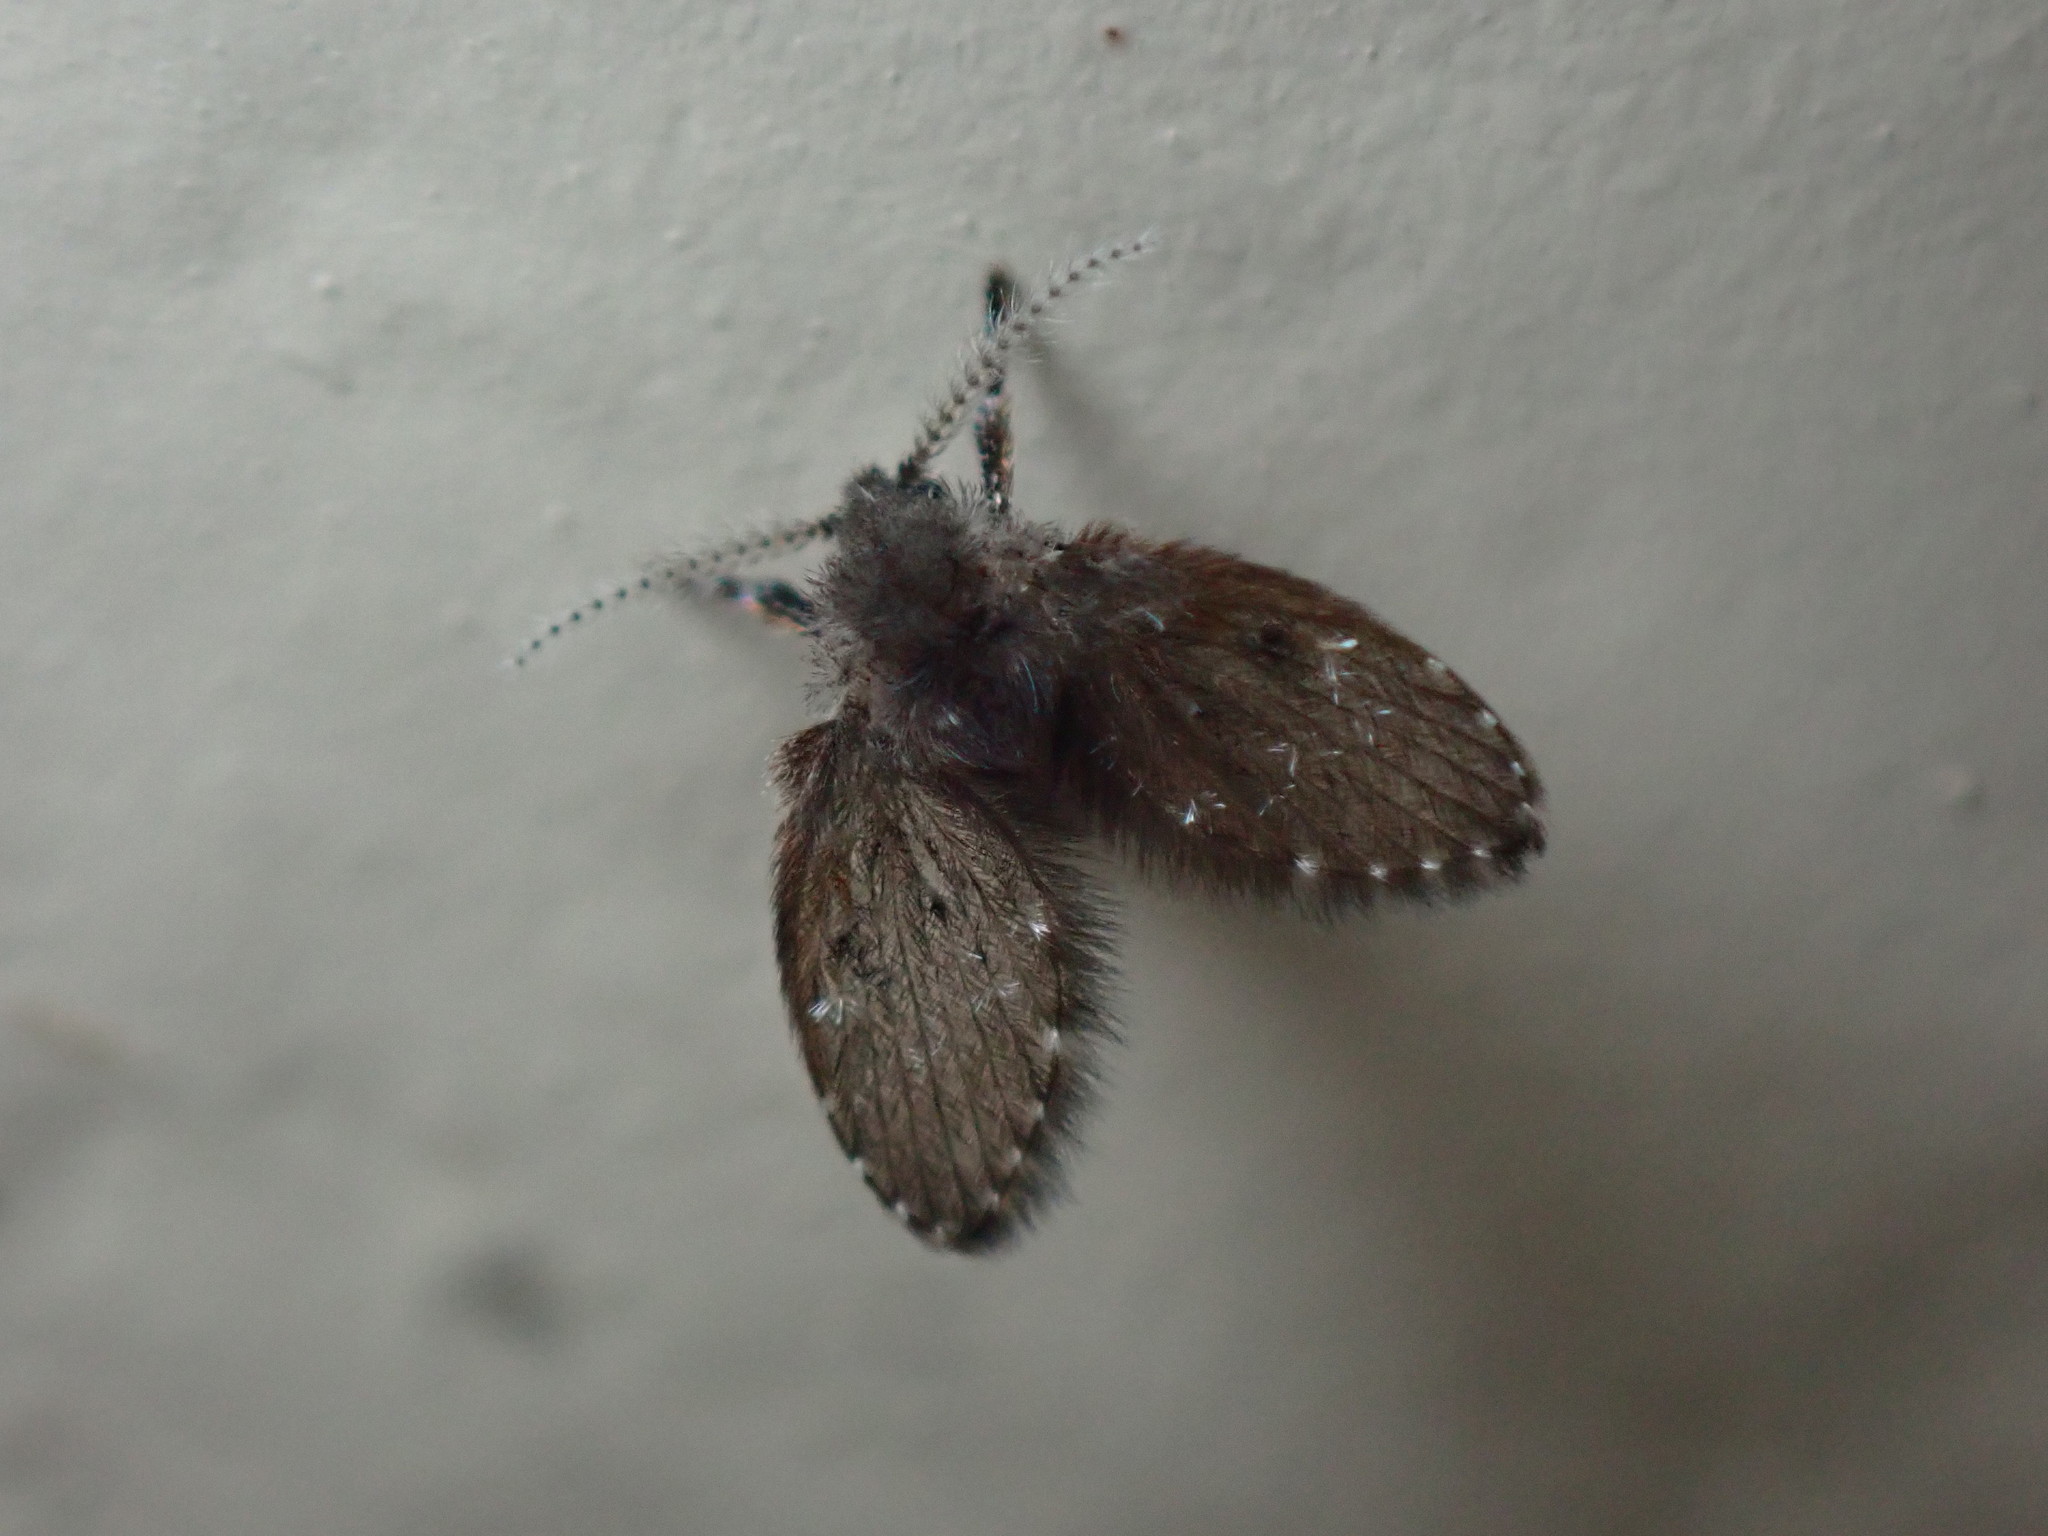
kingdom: Animalia
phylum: Arthropoda
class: Insecta
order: Diptera
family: Psychodidae
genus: Clogmia
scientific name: Clogmia albipunctatus
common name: White-spotted moth fly
